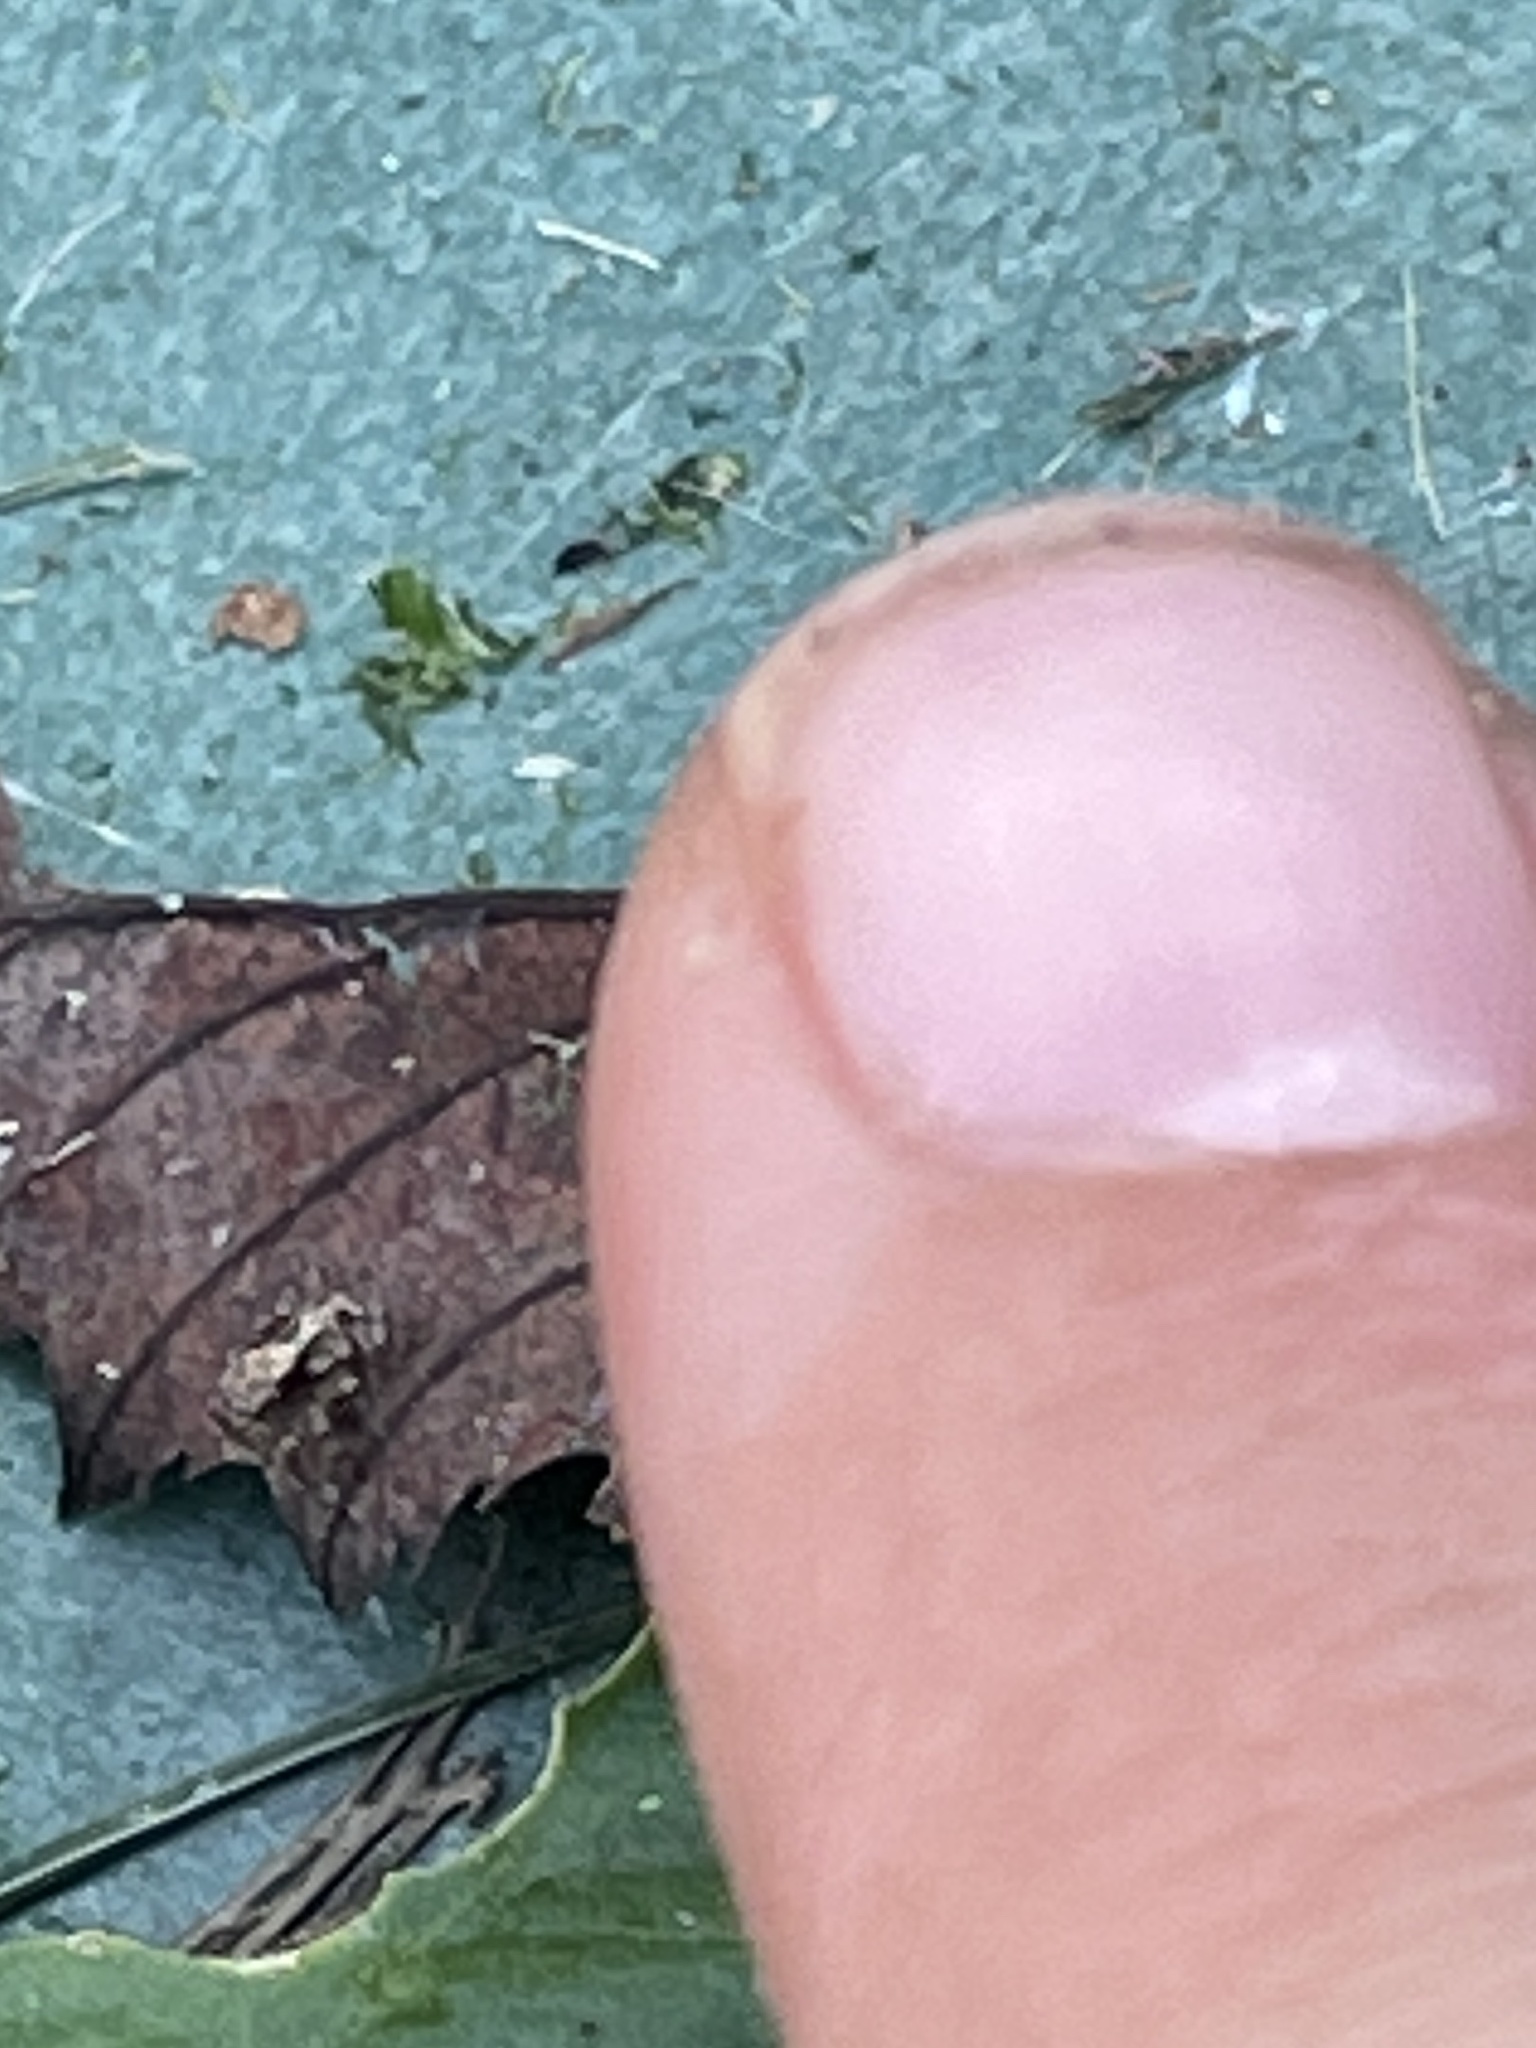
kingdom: Animalia
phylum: Arthropoda
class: Arachnida
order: Araneae
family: Salticidae
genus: Naphrys
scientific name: Naphrys pulex
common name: Flea jumping spider
